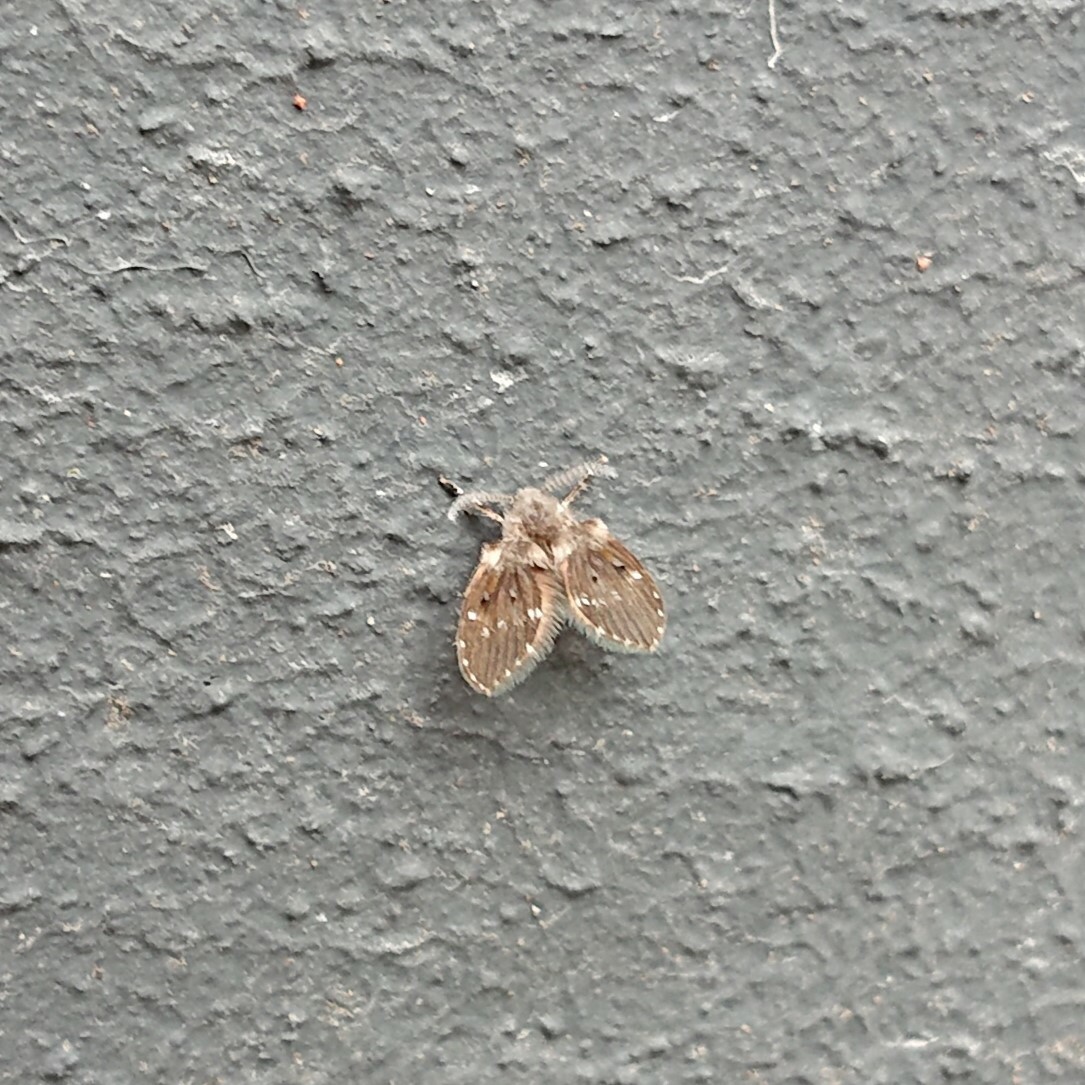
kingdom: Animalia
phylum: Arthropoda
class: Insecta
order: Diptera
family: Psychodidae
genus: Clogmia
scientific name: Clogmia albipunctatus
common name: White-spotted moth fly
